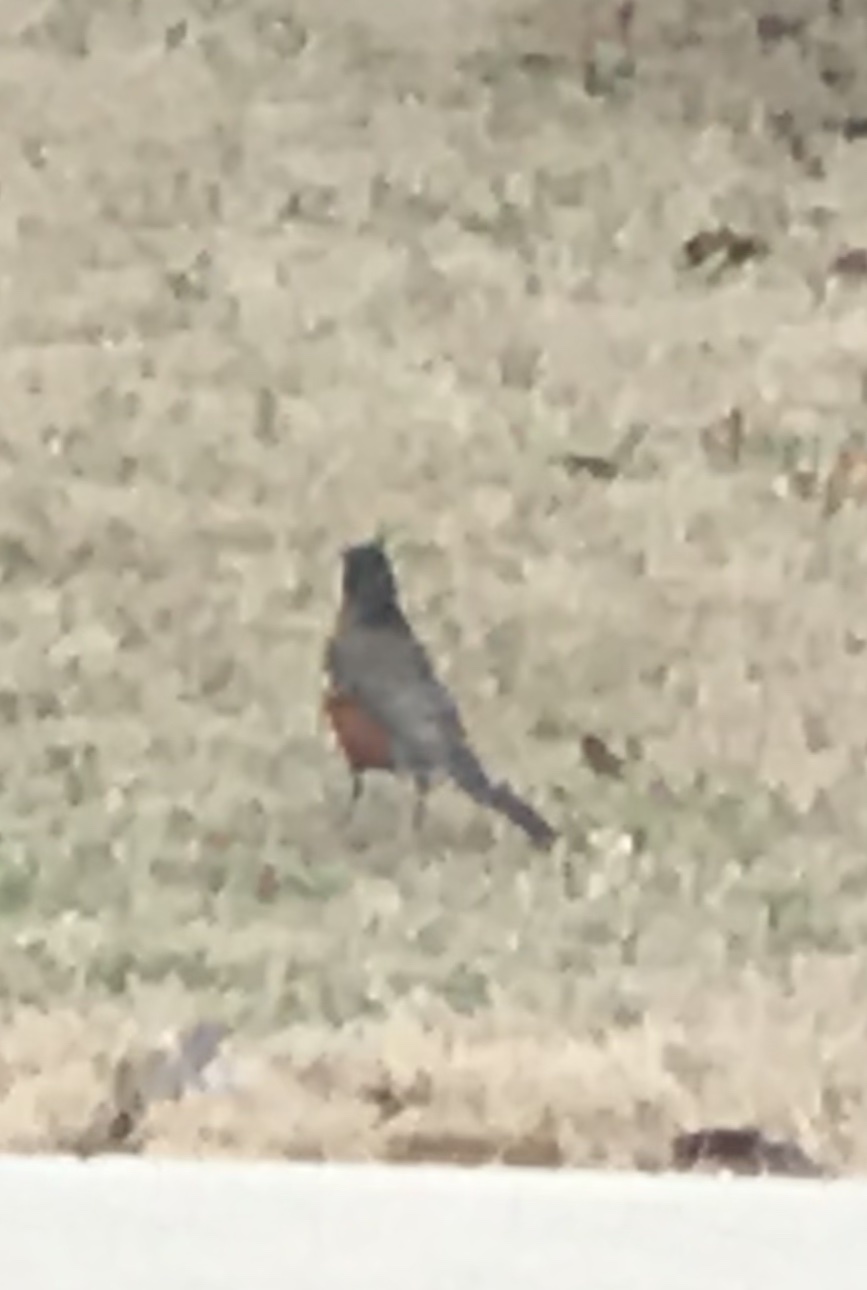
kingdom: Animalia
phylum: Chordata
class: Aves
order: Passeriformes
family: Turdidae
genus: Turdus
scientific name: Turdus migratorius
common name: American robin
